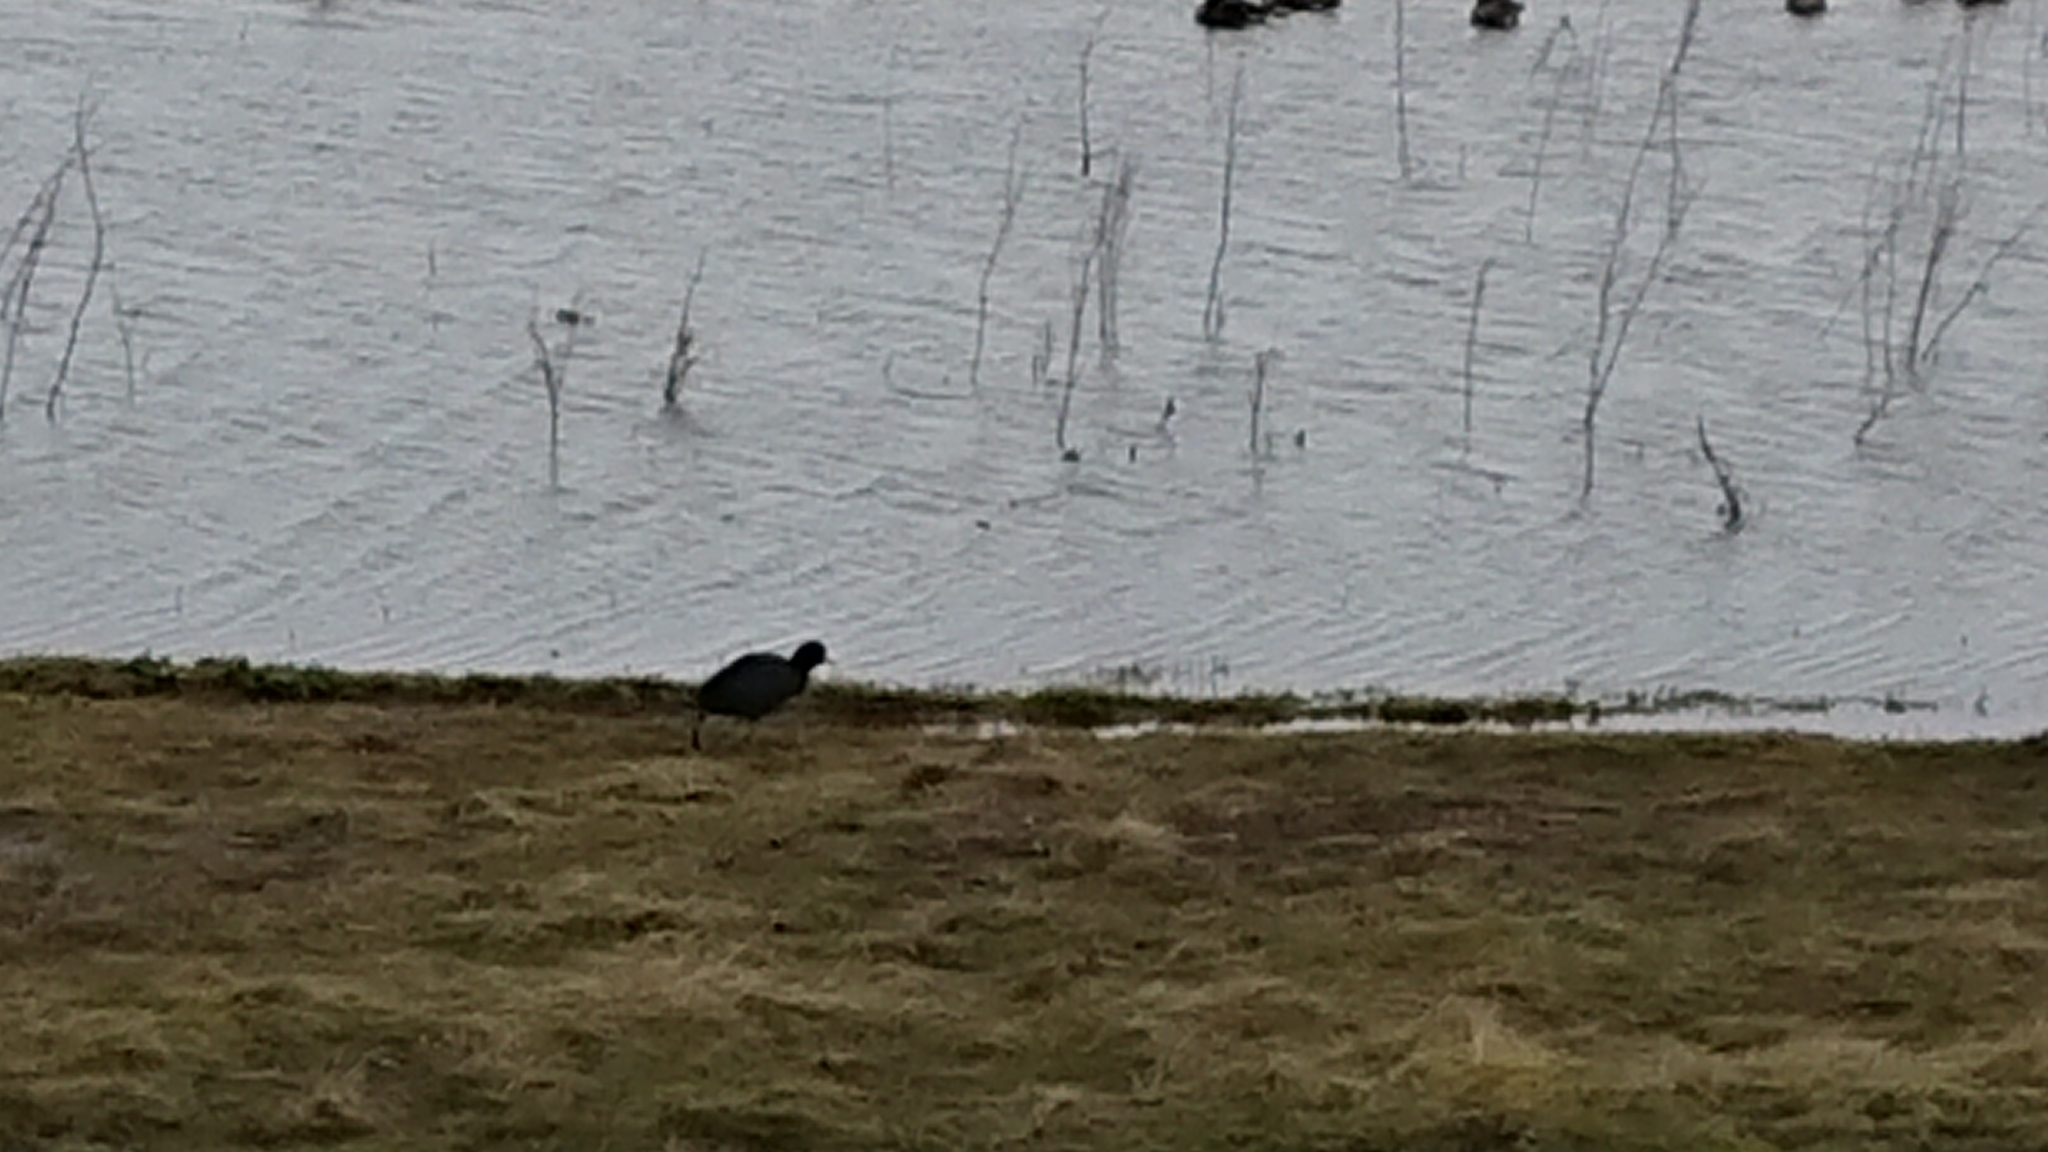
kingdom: Animalia
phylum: Chordata
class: Aves
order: Gruiformes
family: Rallidae
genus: Fulica
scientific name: Fulica atra
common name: Eurasian coot
